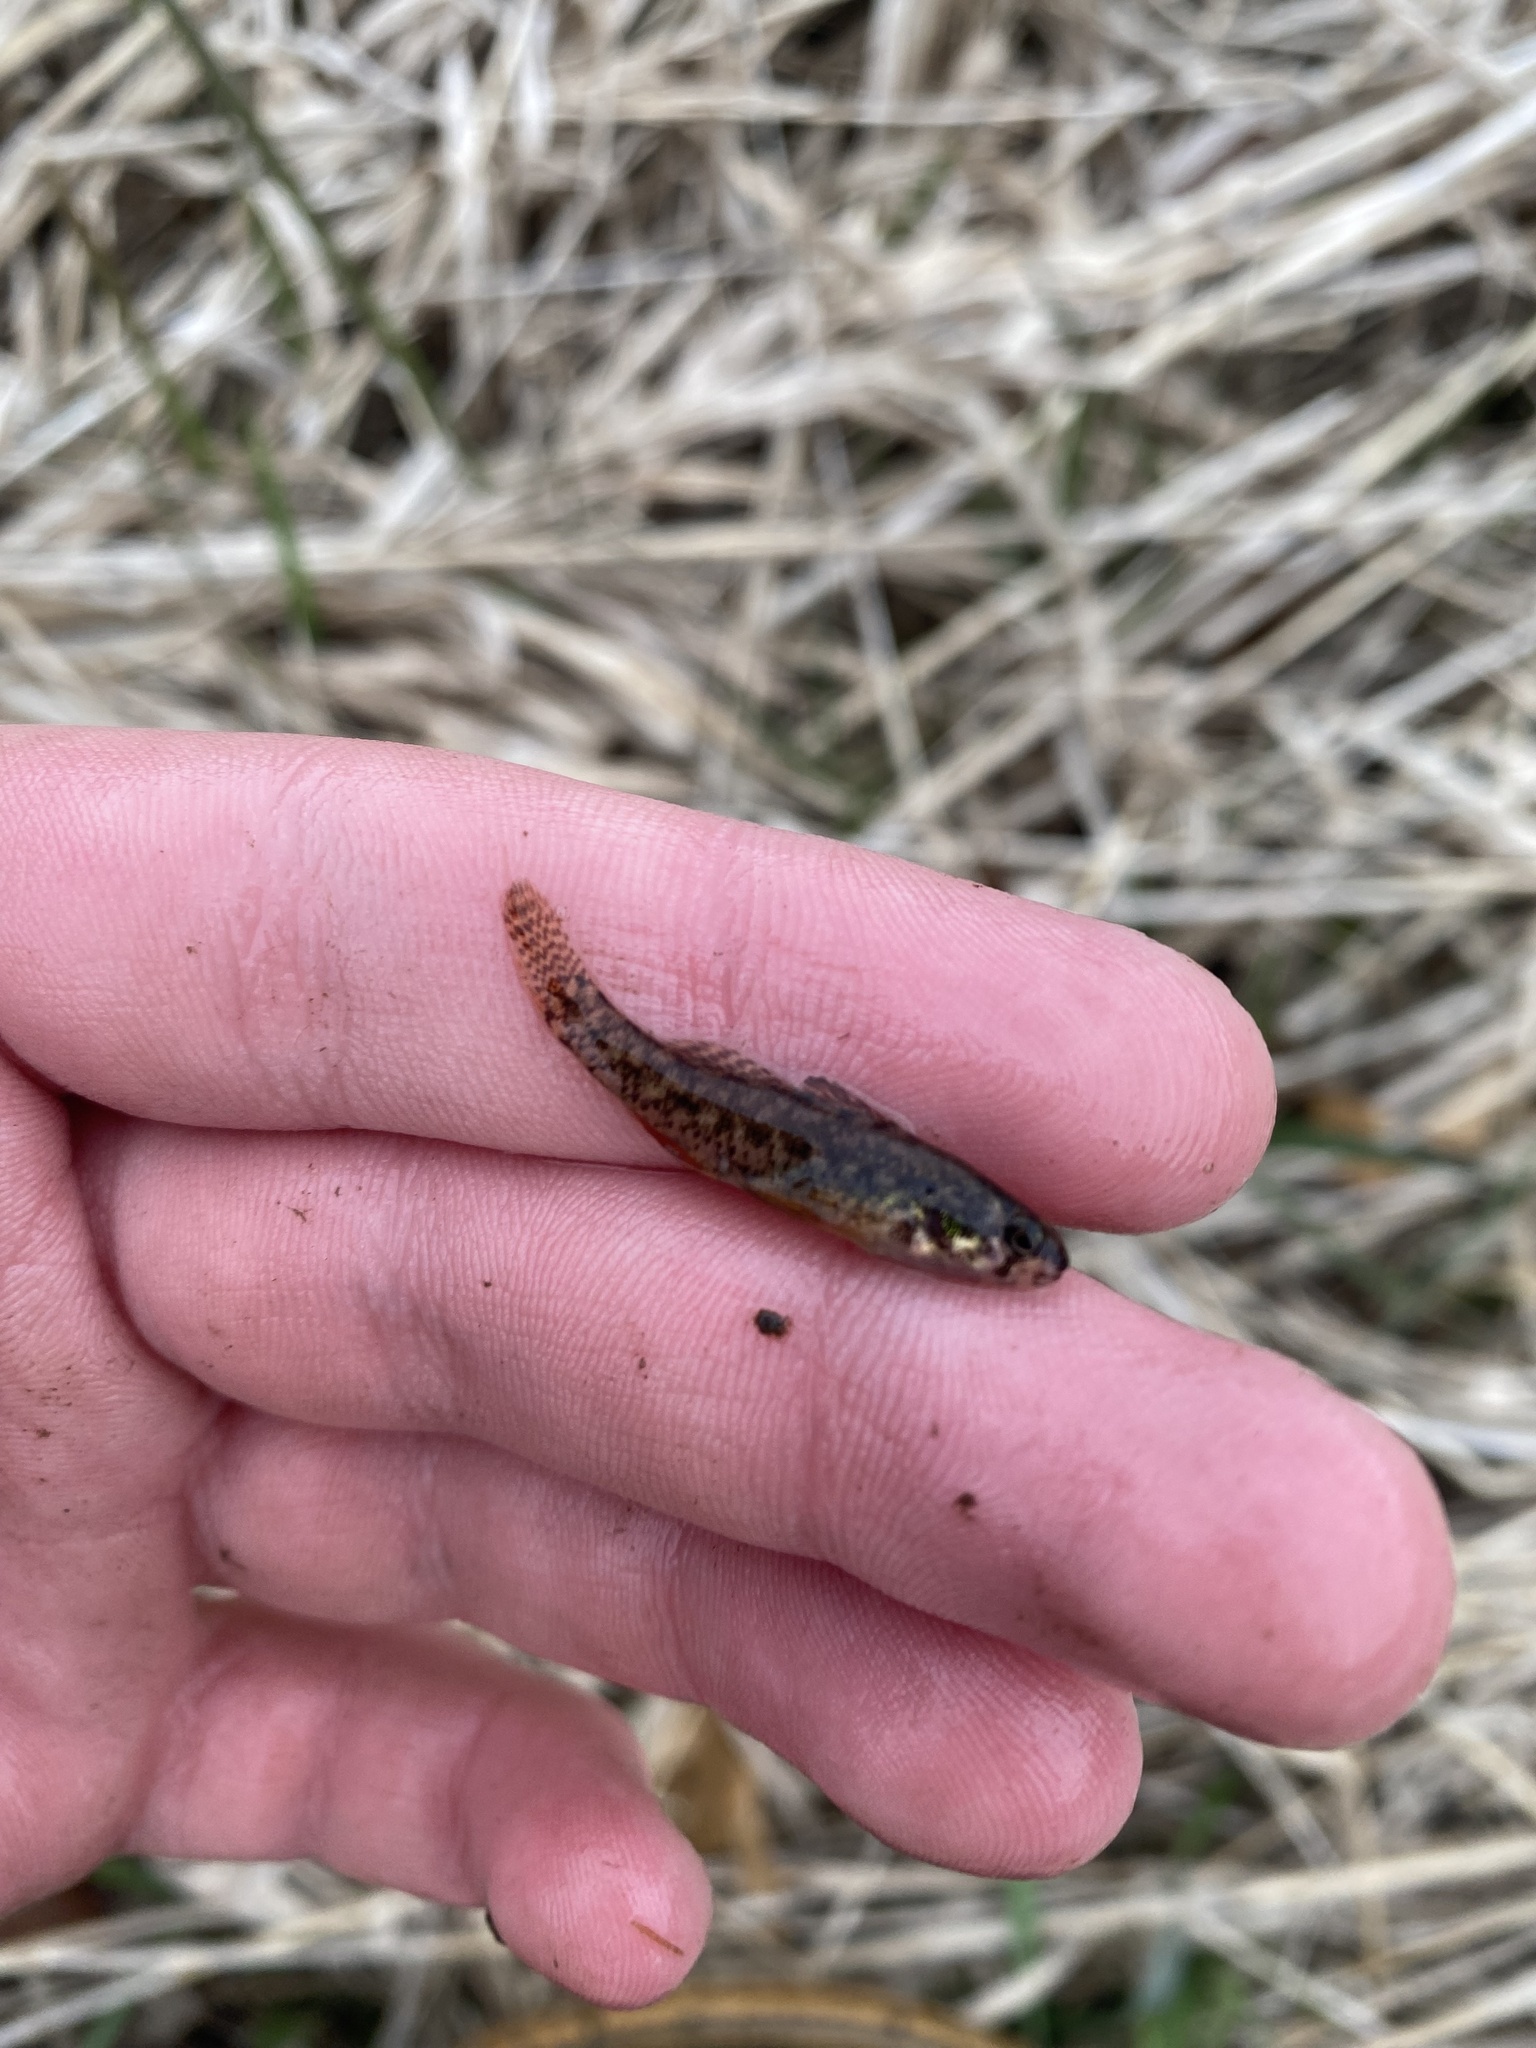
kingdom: Animalia
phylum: Chordata
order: Perciformes
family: Percidae
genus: Etheostoma
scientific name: Etheostoma microperca
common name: Least darter
